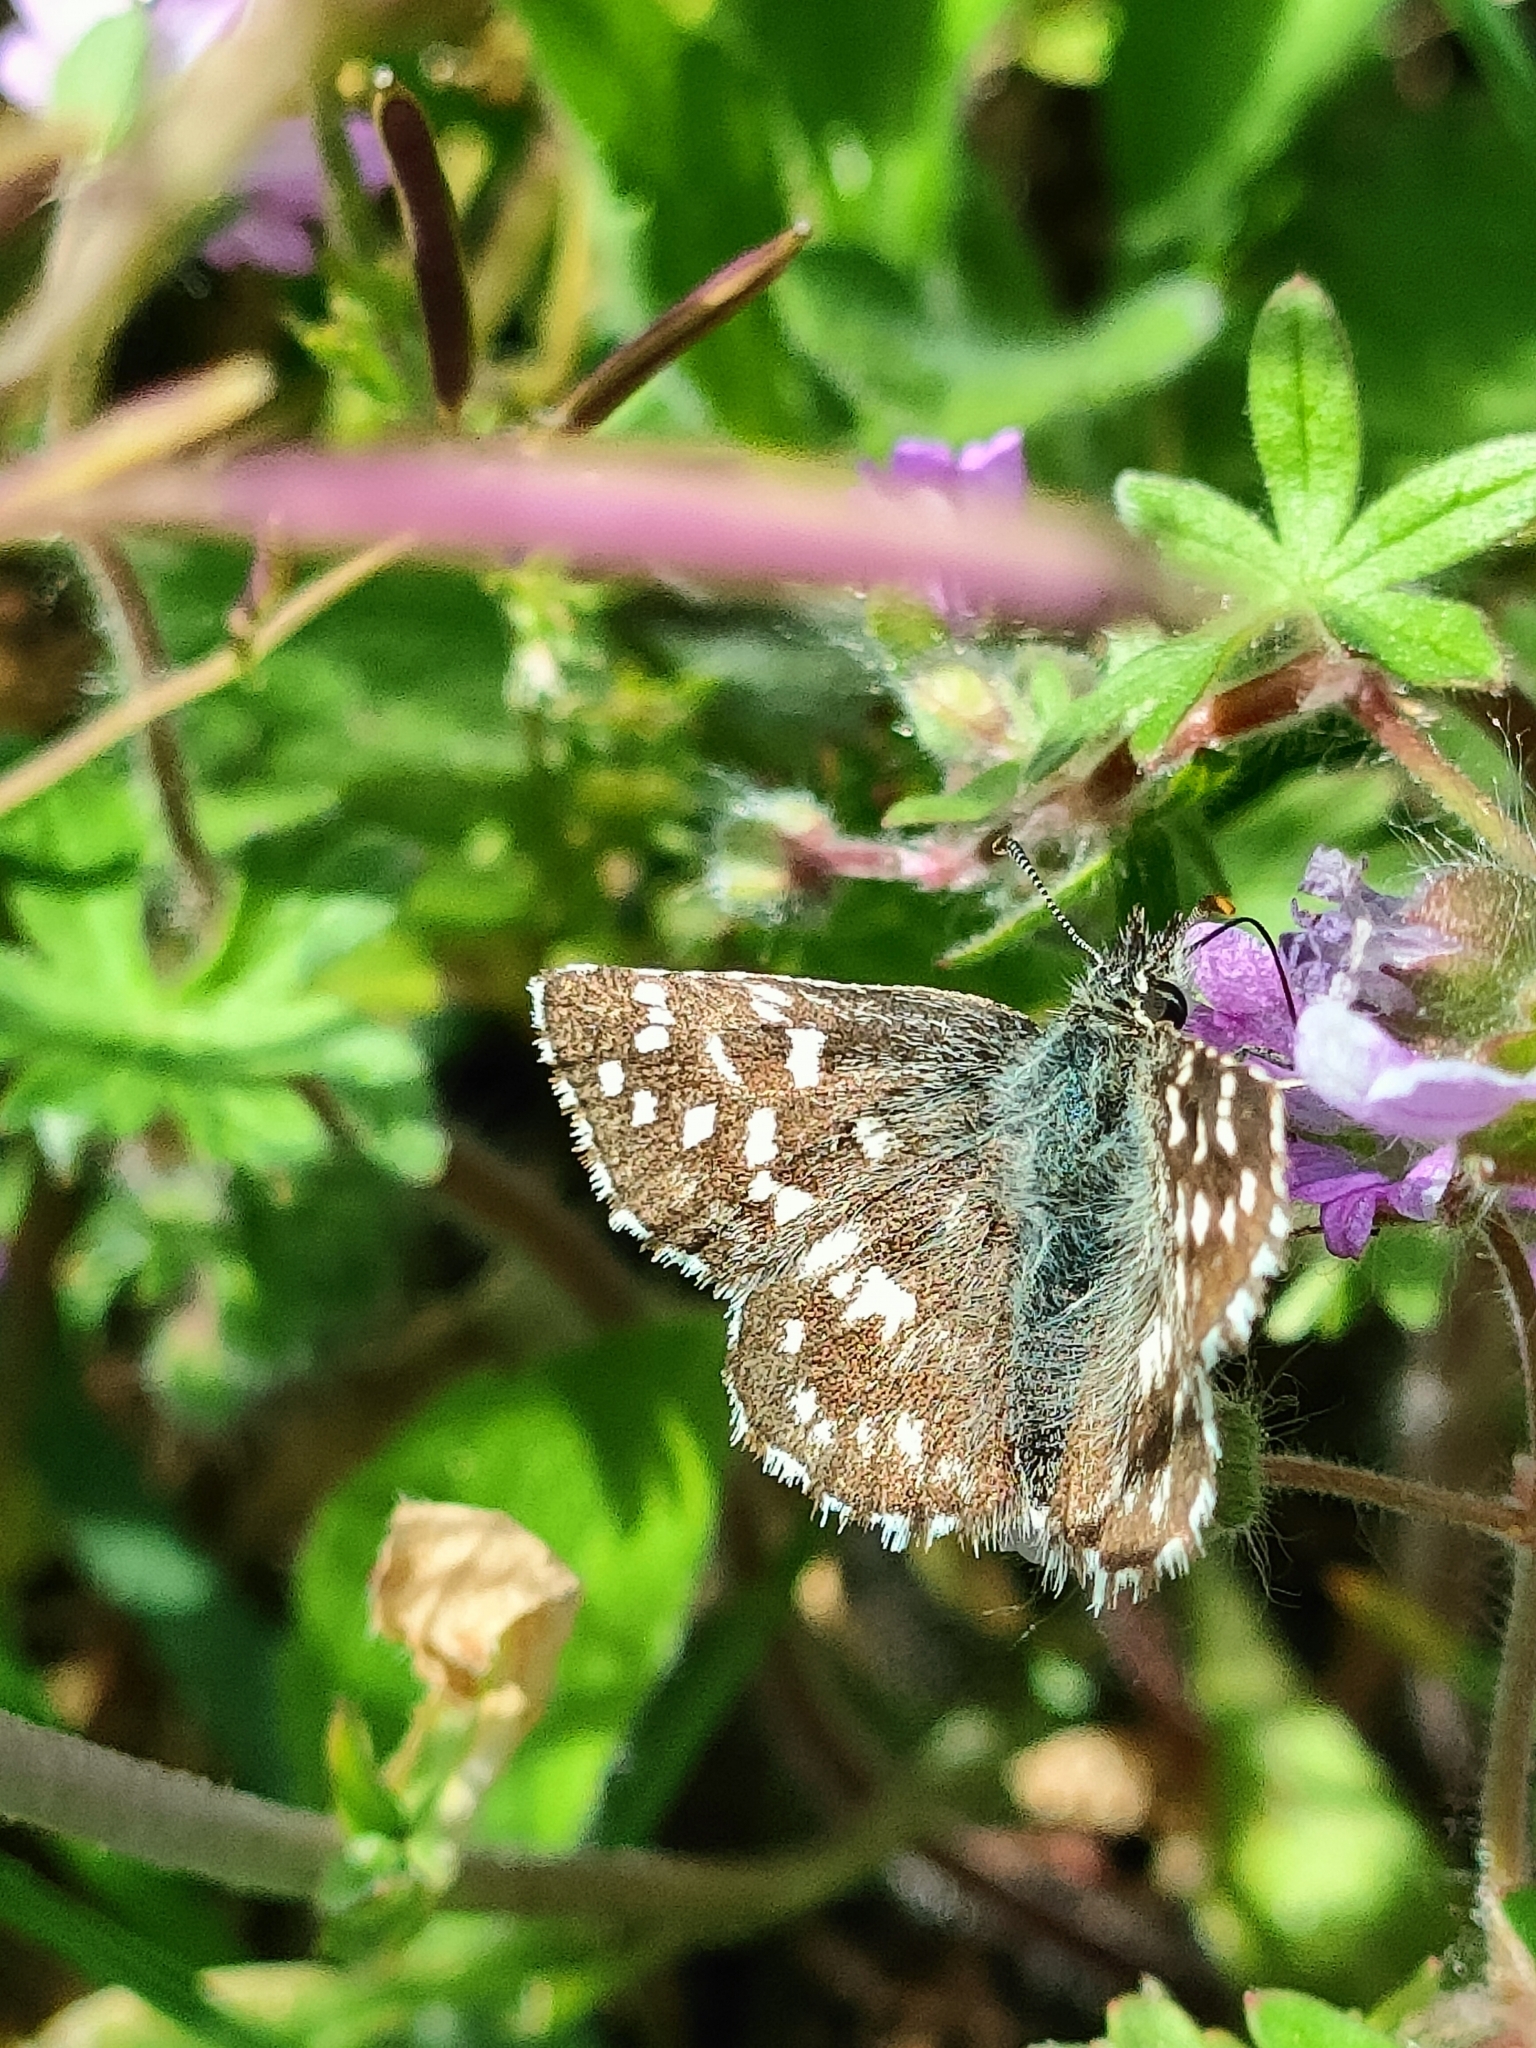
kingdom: Animalia
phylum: Arthropoda
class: Insecta
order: Lepidoptera
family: Hesperiidae
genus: Pyrgus
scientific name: Pyrgus malvoides
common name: Southern grizzled skipper
